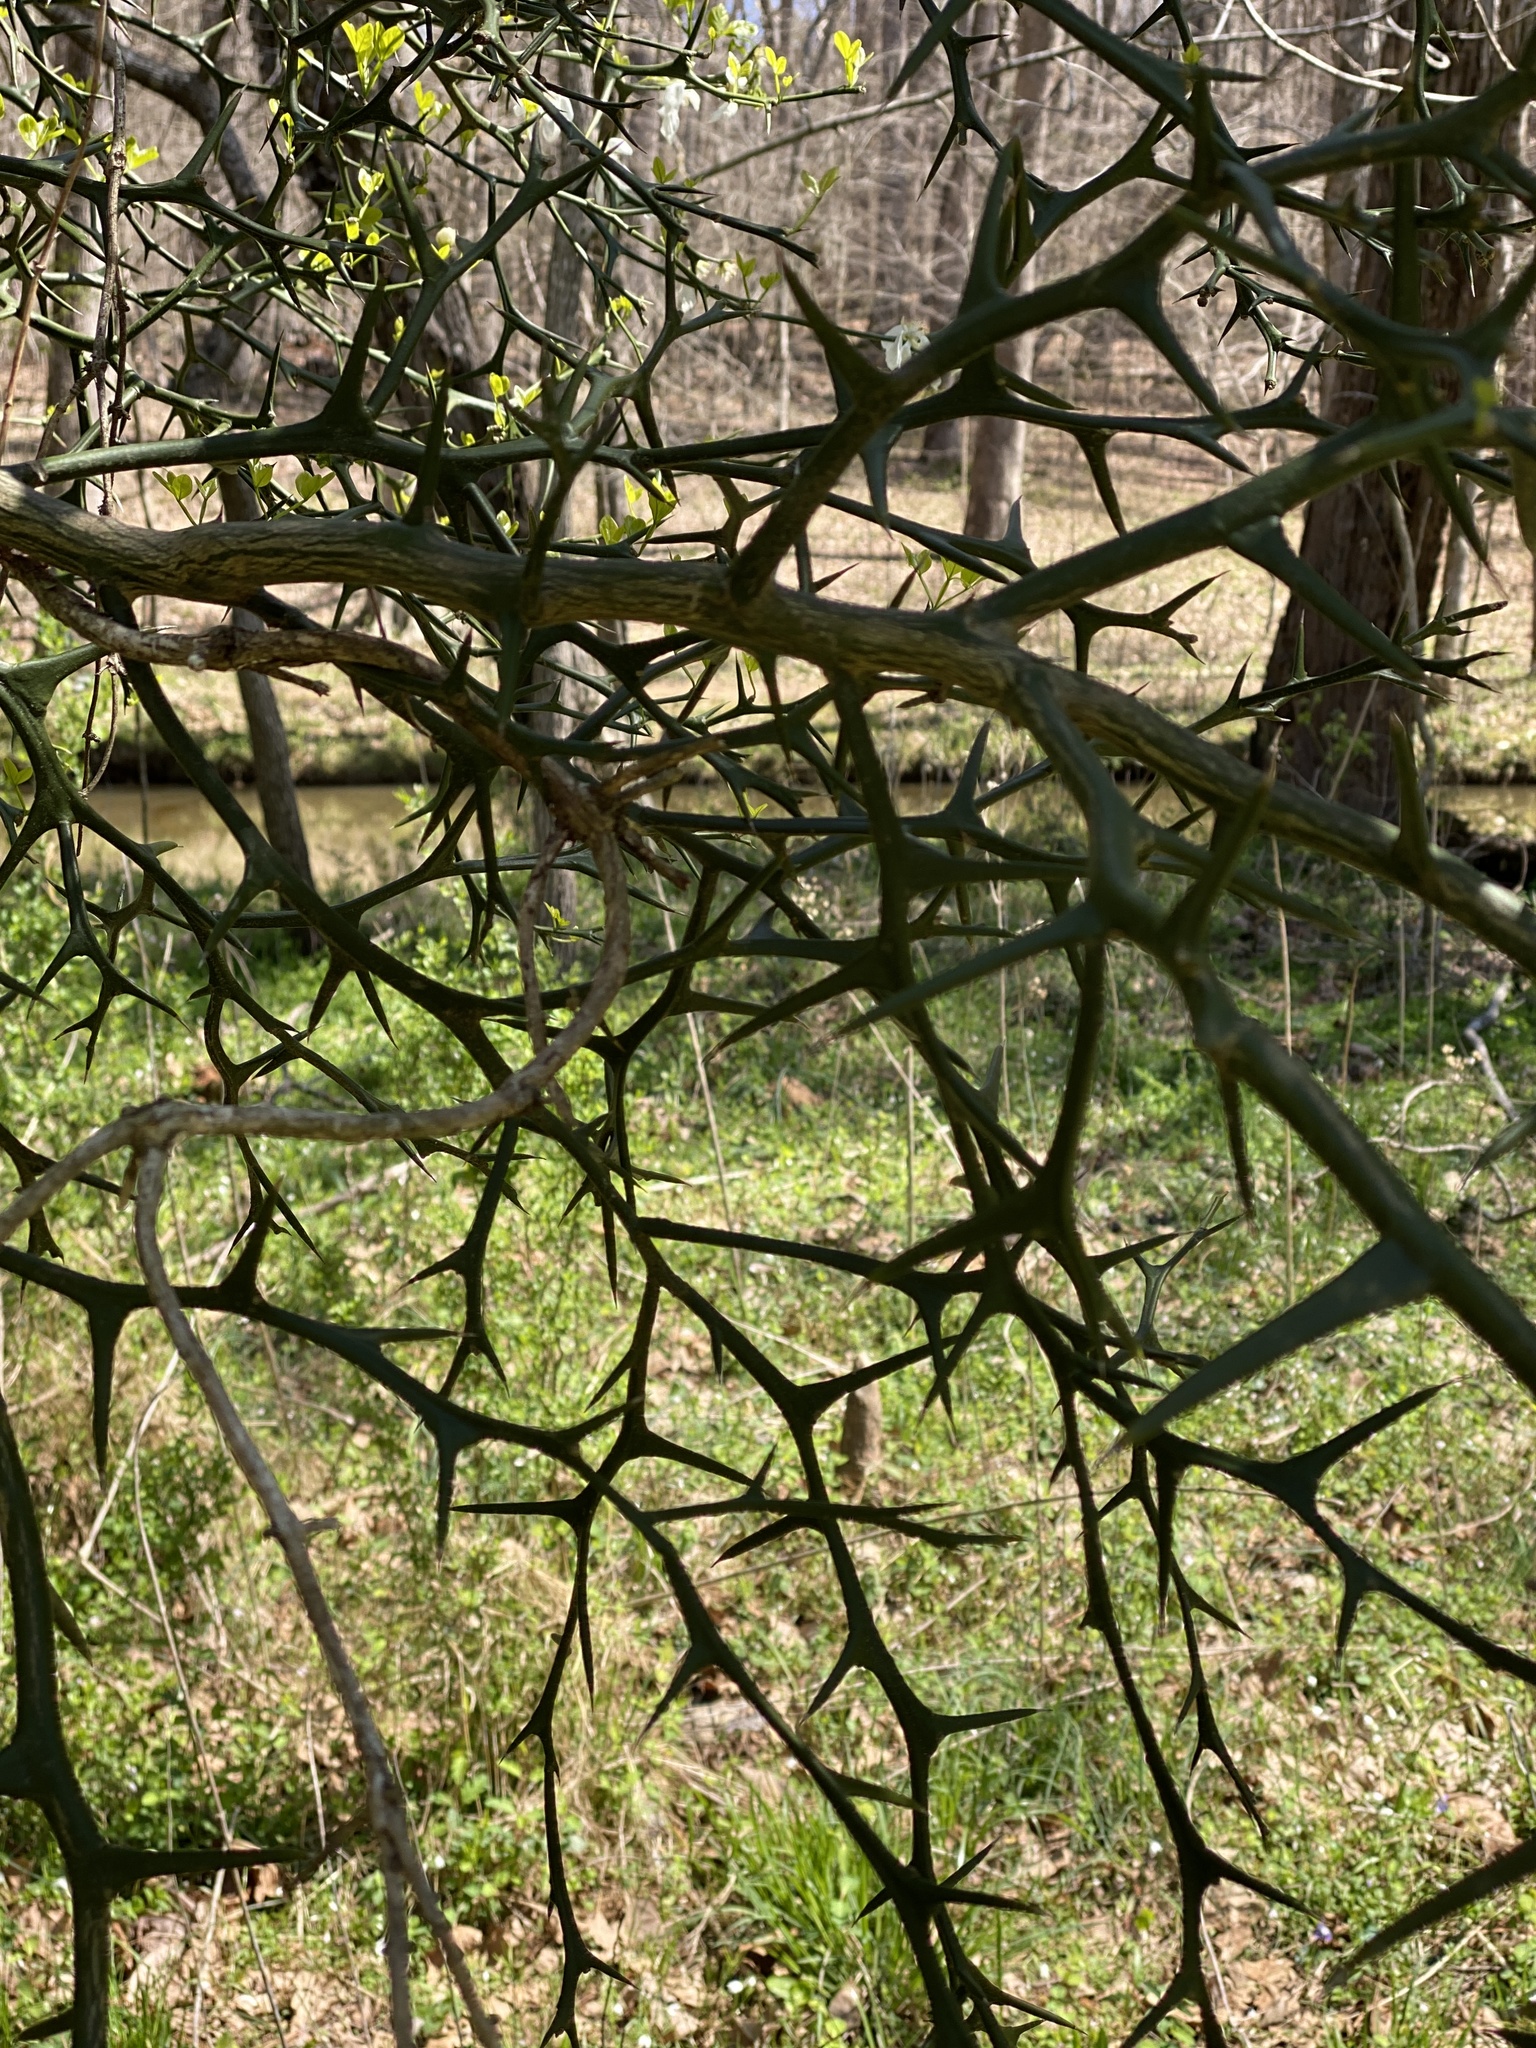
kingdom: Plantae
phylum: Tracheophyta
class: Magnoliopsida
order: Sapindales
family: Rutaceae
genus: Citrus
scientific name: Citrus trifoliata
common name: Japanese bitter-orange
